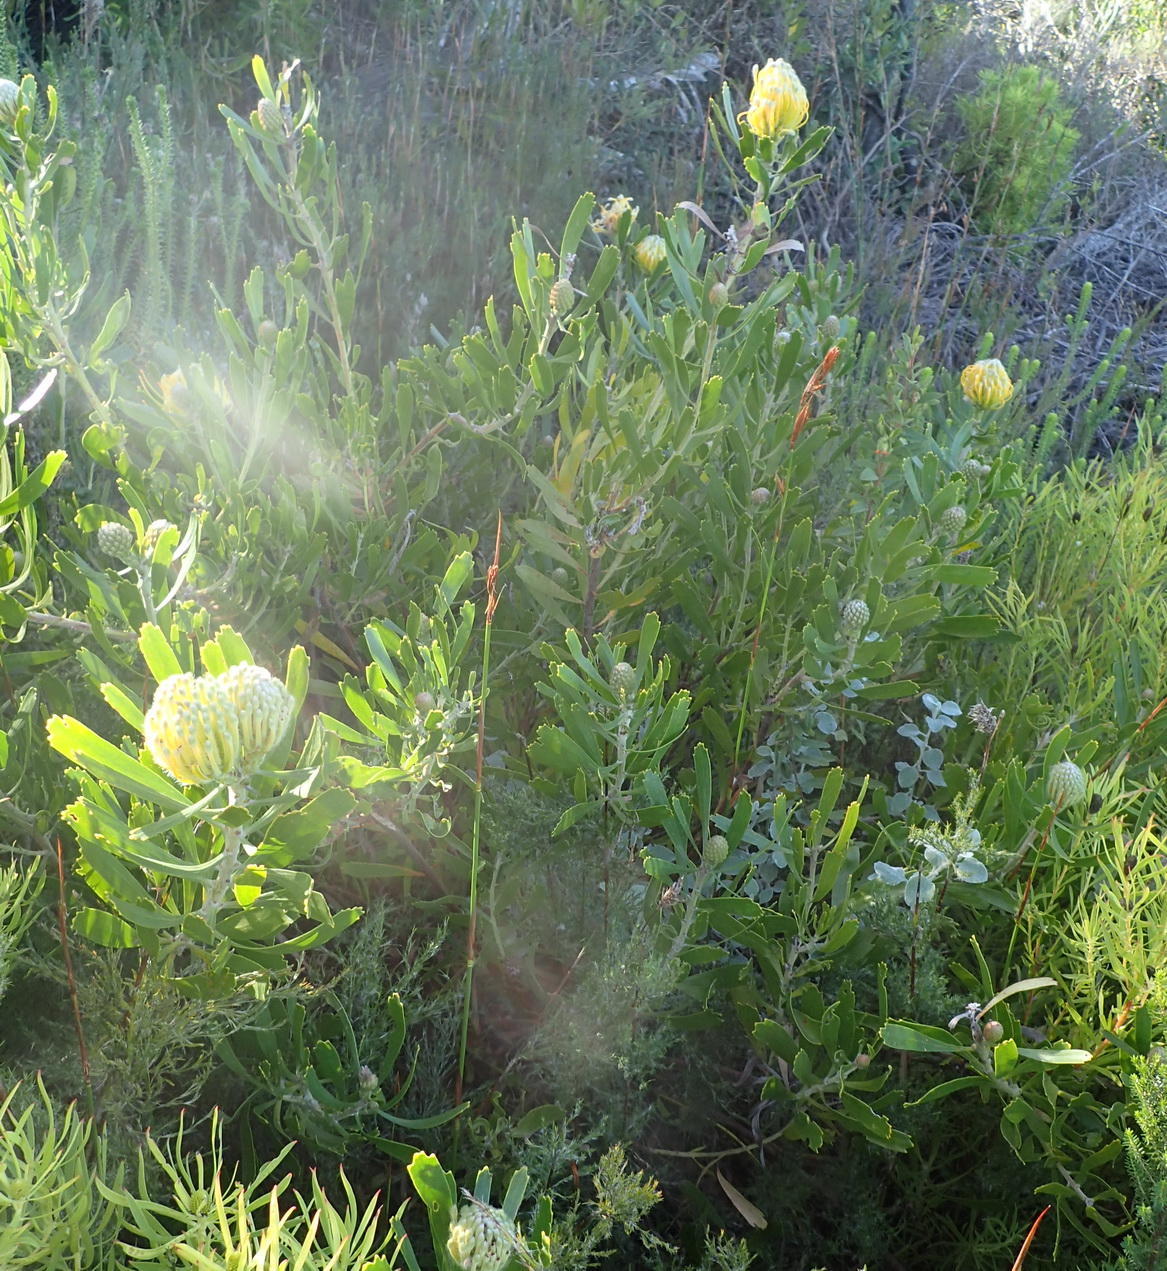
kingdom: Plantae
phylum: Tracheophyta
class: Magnoliopsida
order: Proteales
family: Proteaceae
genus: Leucospermum
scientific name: Leucospermum cuneiforme
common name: Common pincushion
